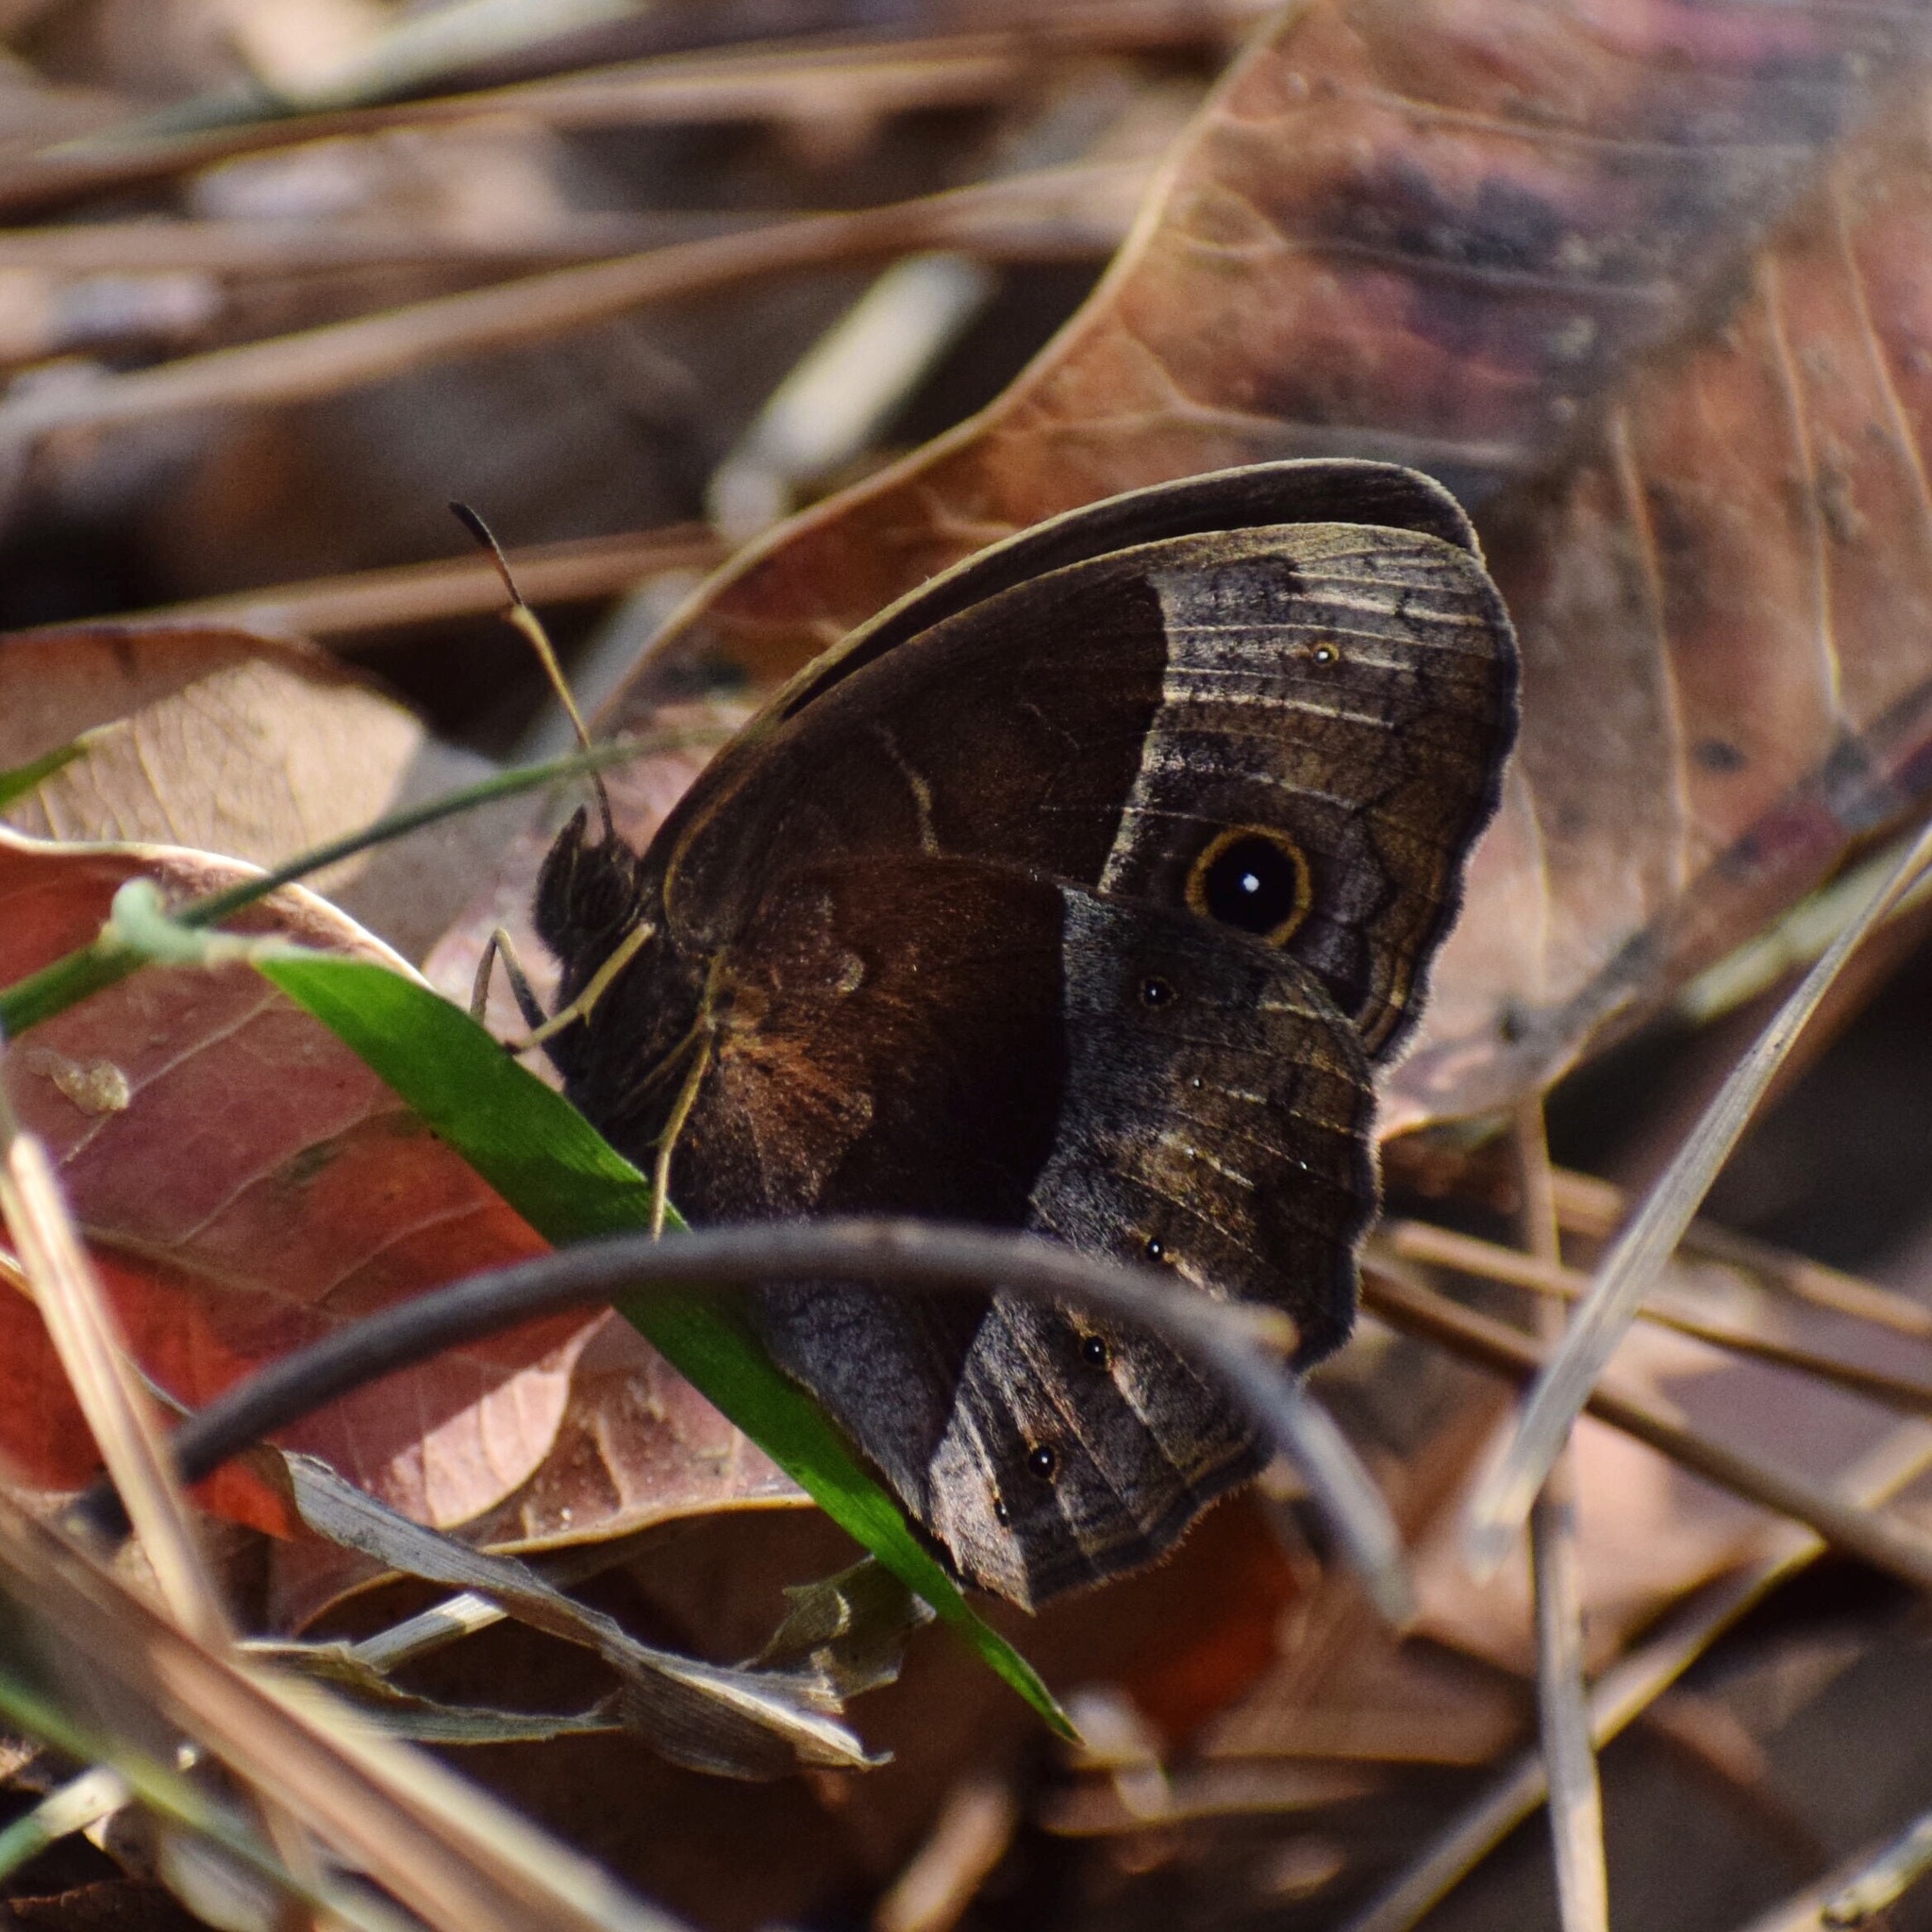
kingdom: Animalia
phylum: Arthropoda
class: Insecta
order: Lepidoptera
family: Nymphalidae
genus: Mycalesis
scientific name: Mycalesis rhacotis
